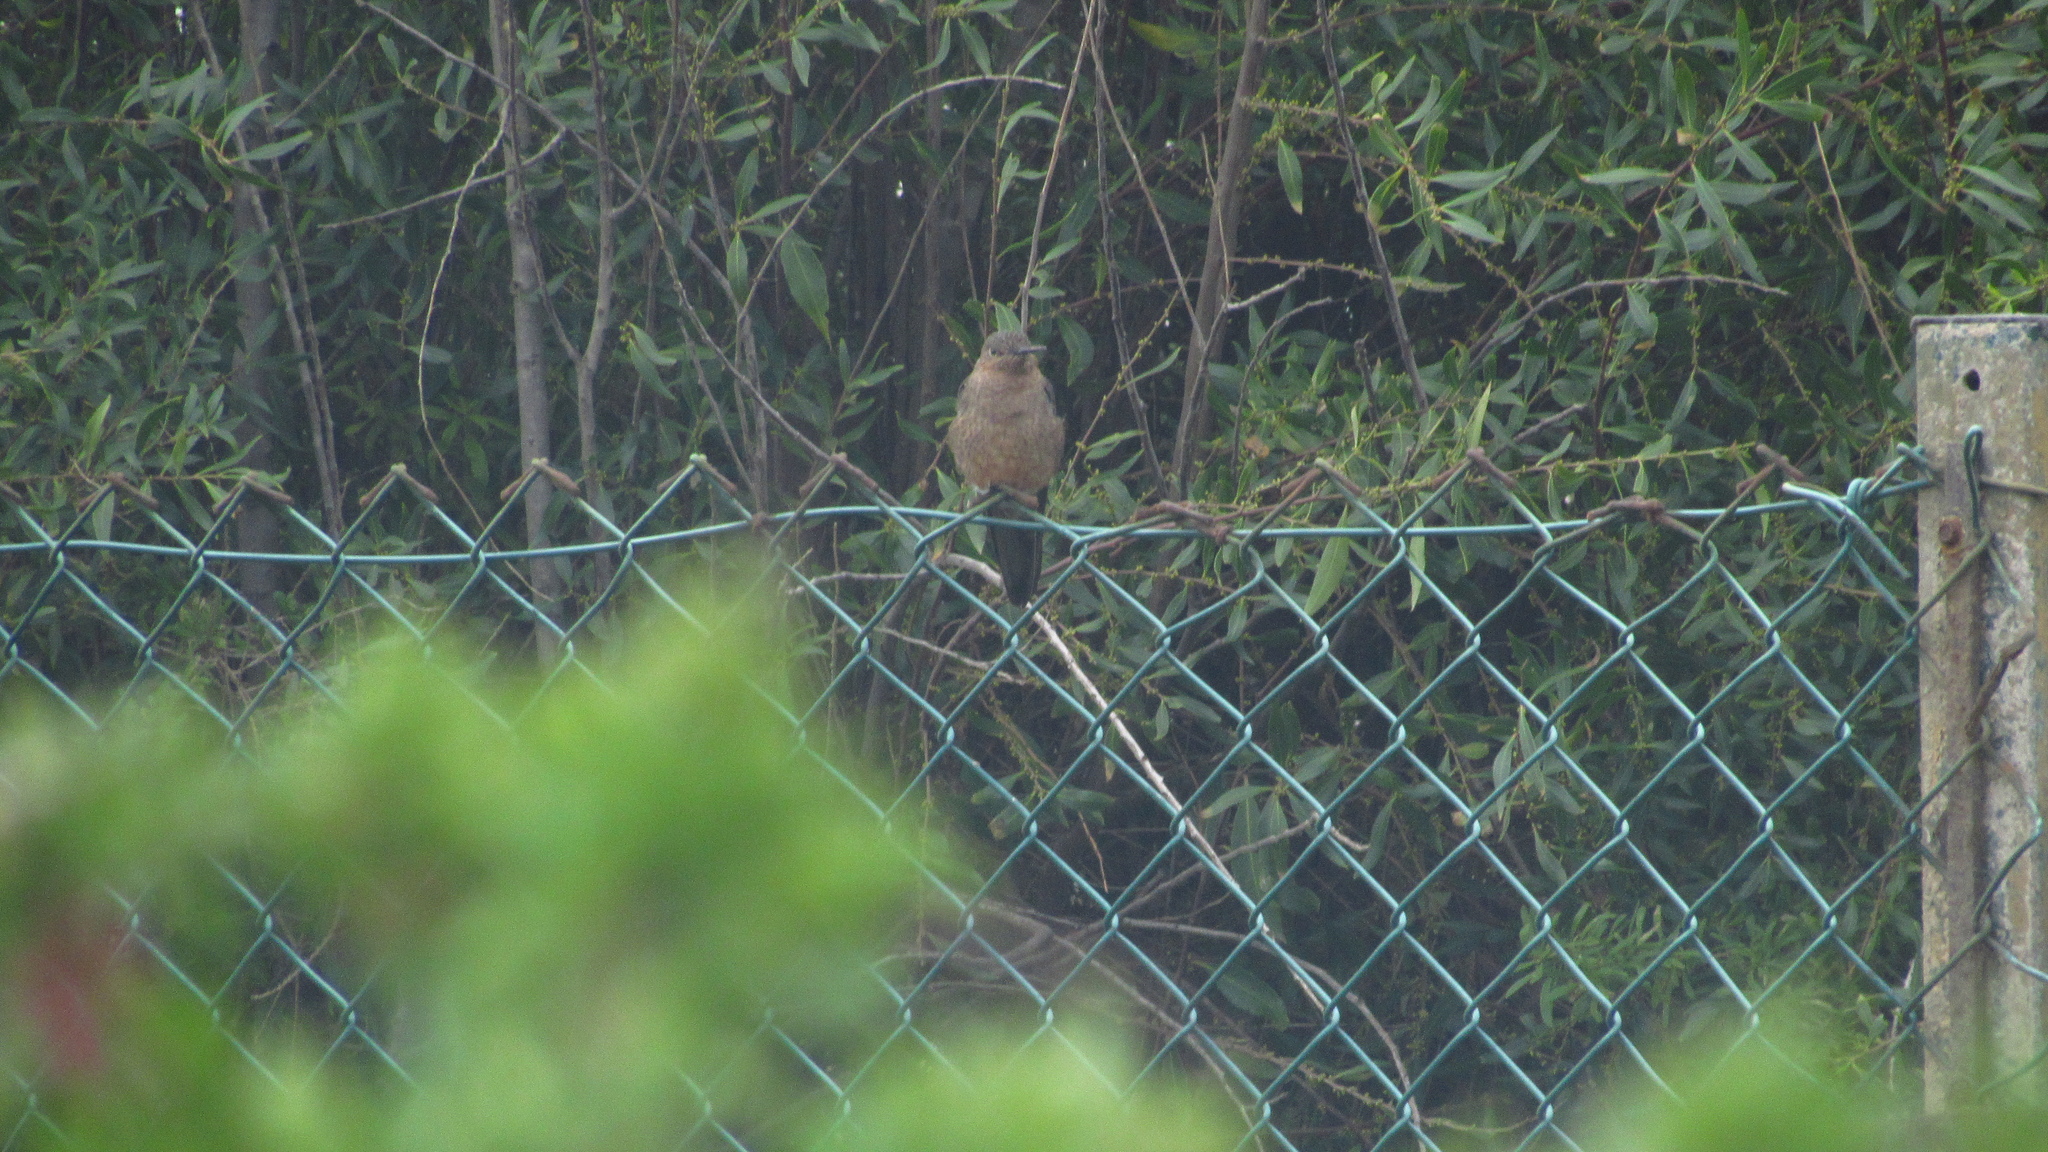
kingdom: Animalia
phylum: Chordata
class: Aves
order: Apodiformes
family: Trochilidae
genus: Patagona
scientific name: Patagona gigas
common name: Giant hummingbird
